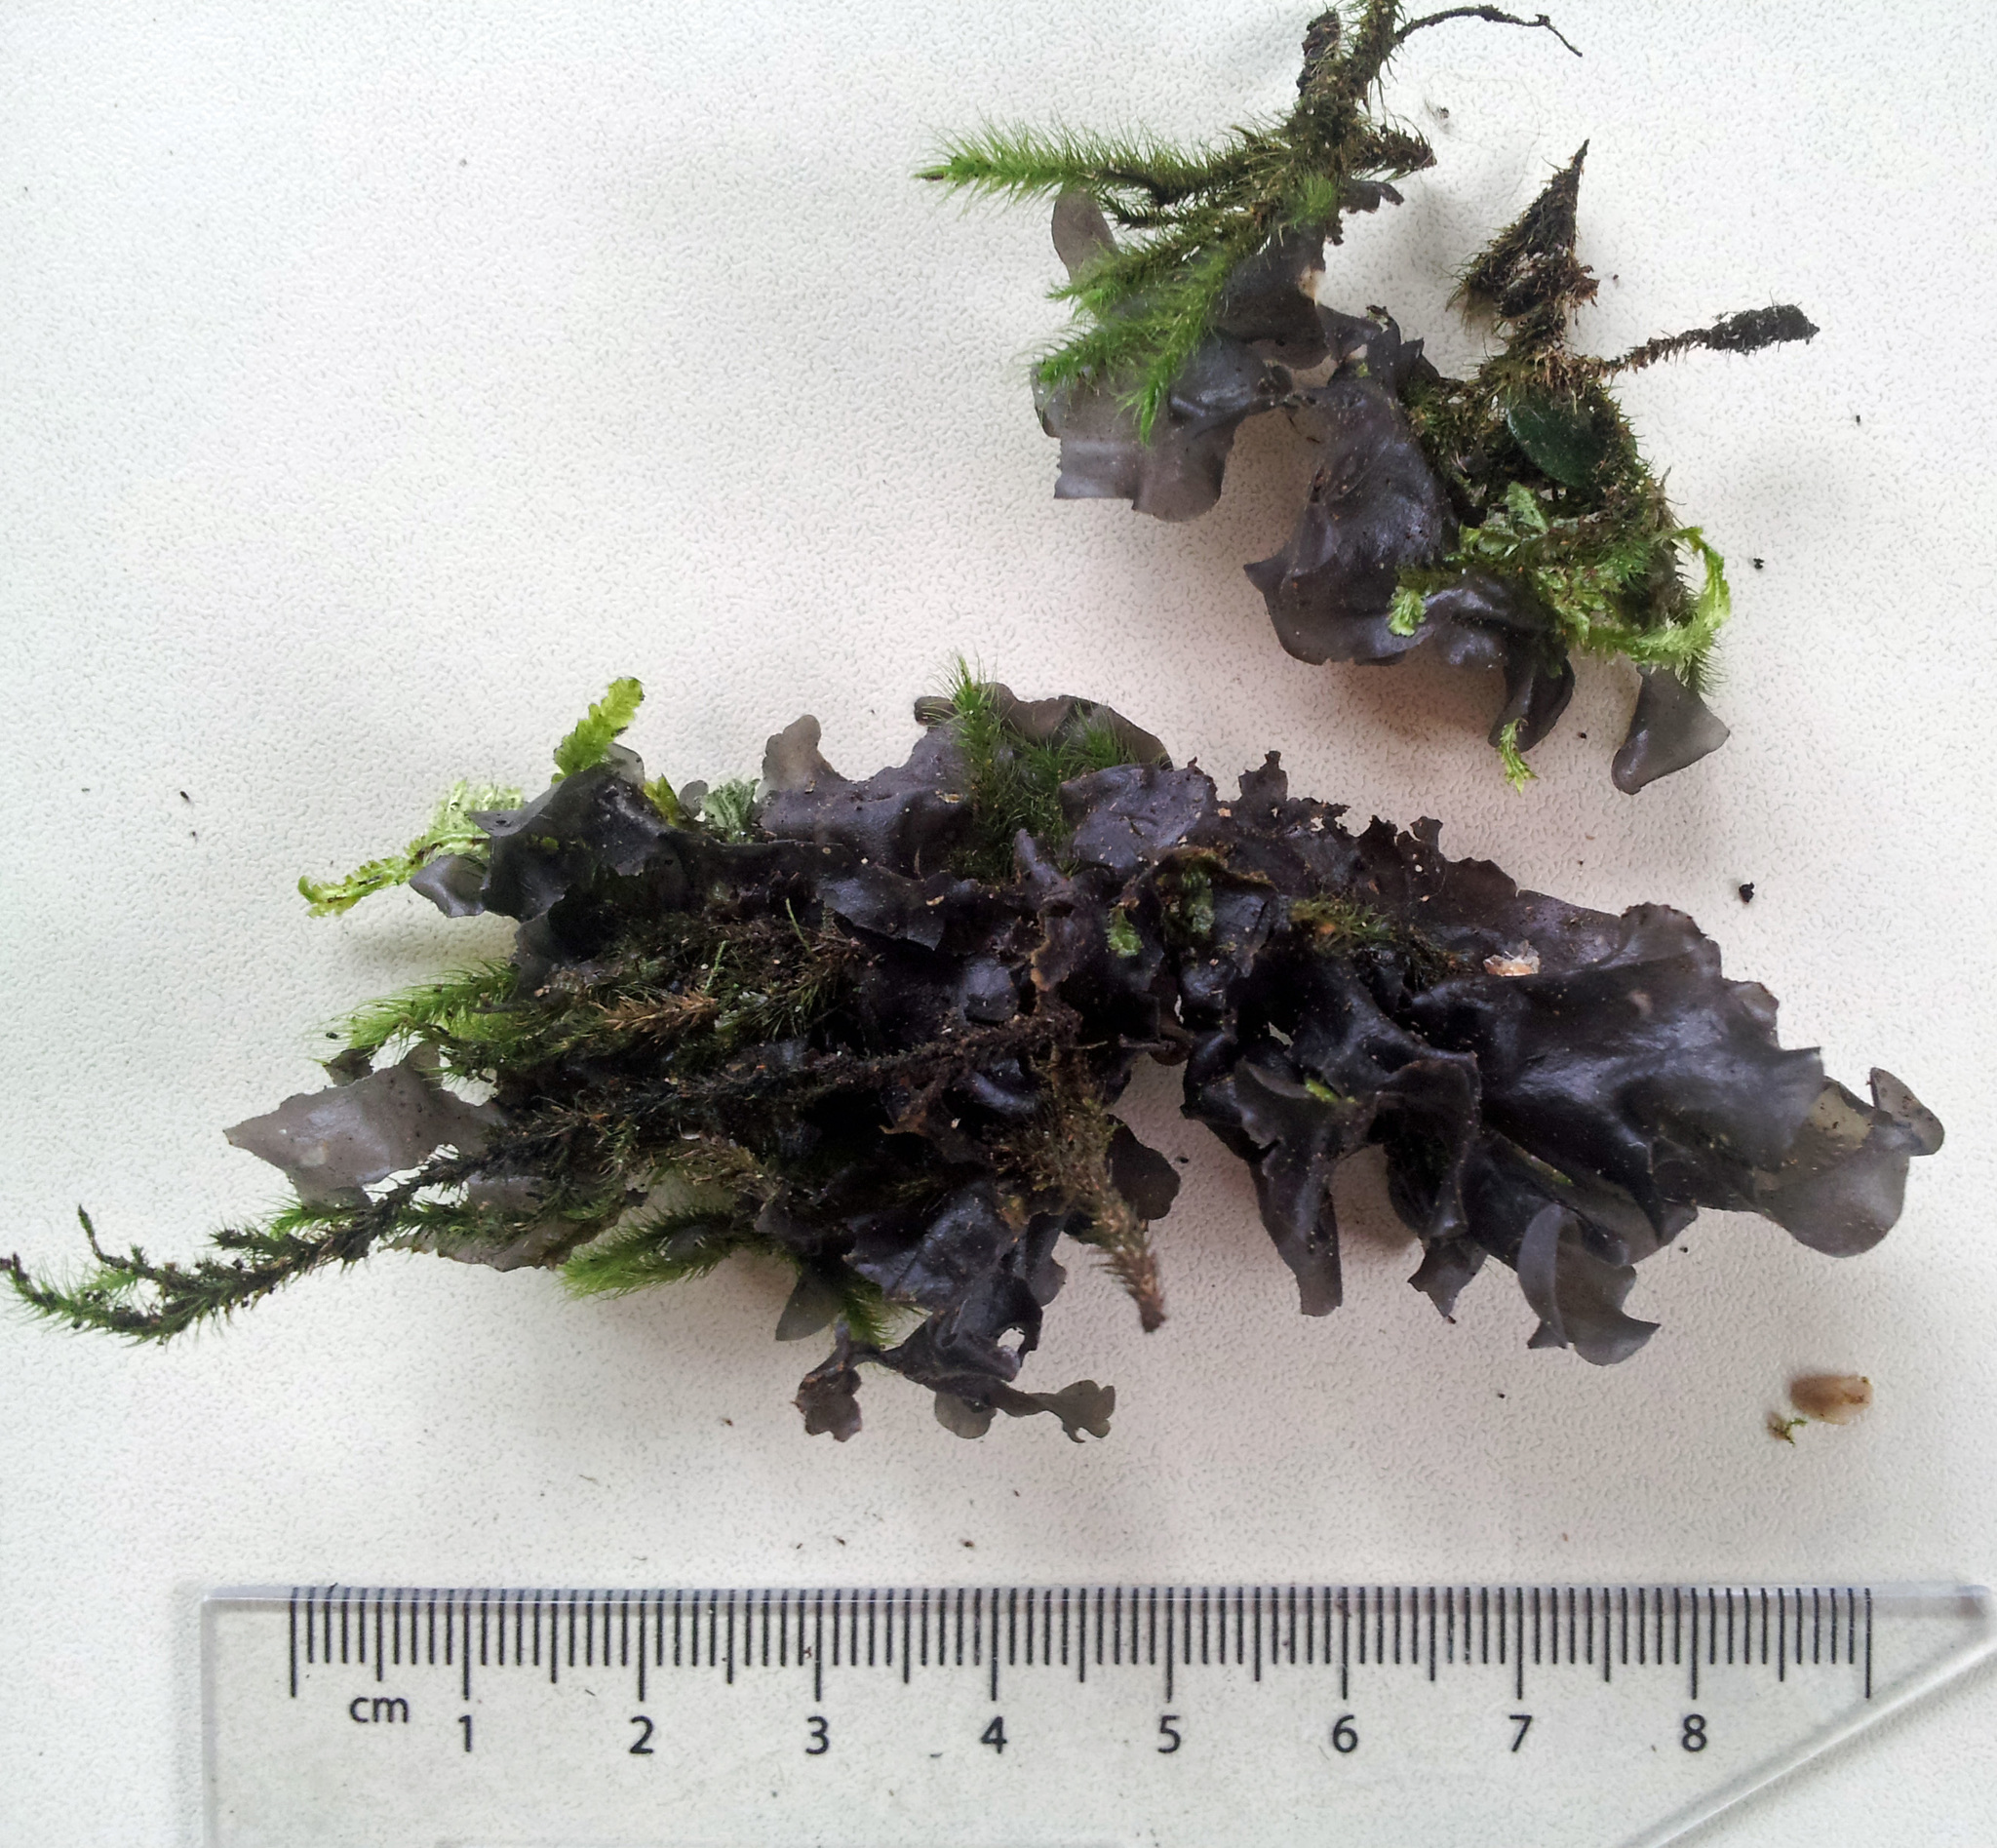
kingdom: Fungi
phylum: Ascomycota
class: Lecanoromycetes
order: Peltigerales
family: Collemataceae
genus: Collema
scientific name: Collema subconveniens
